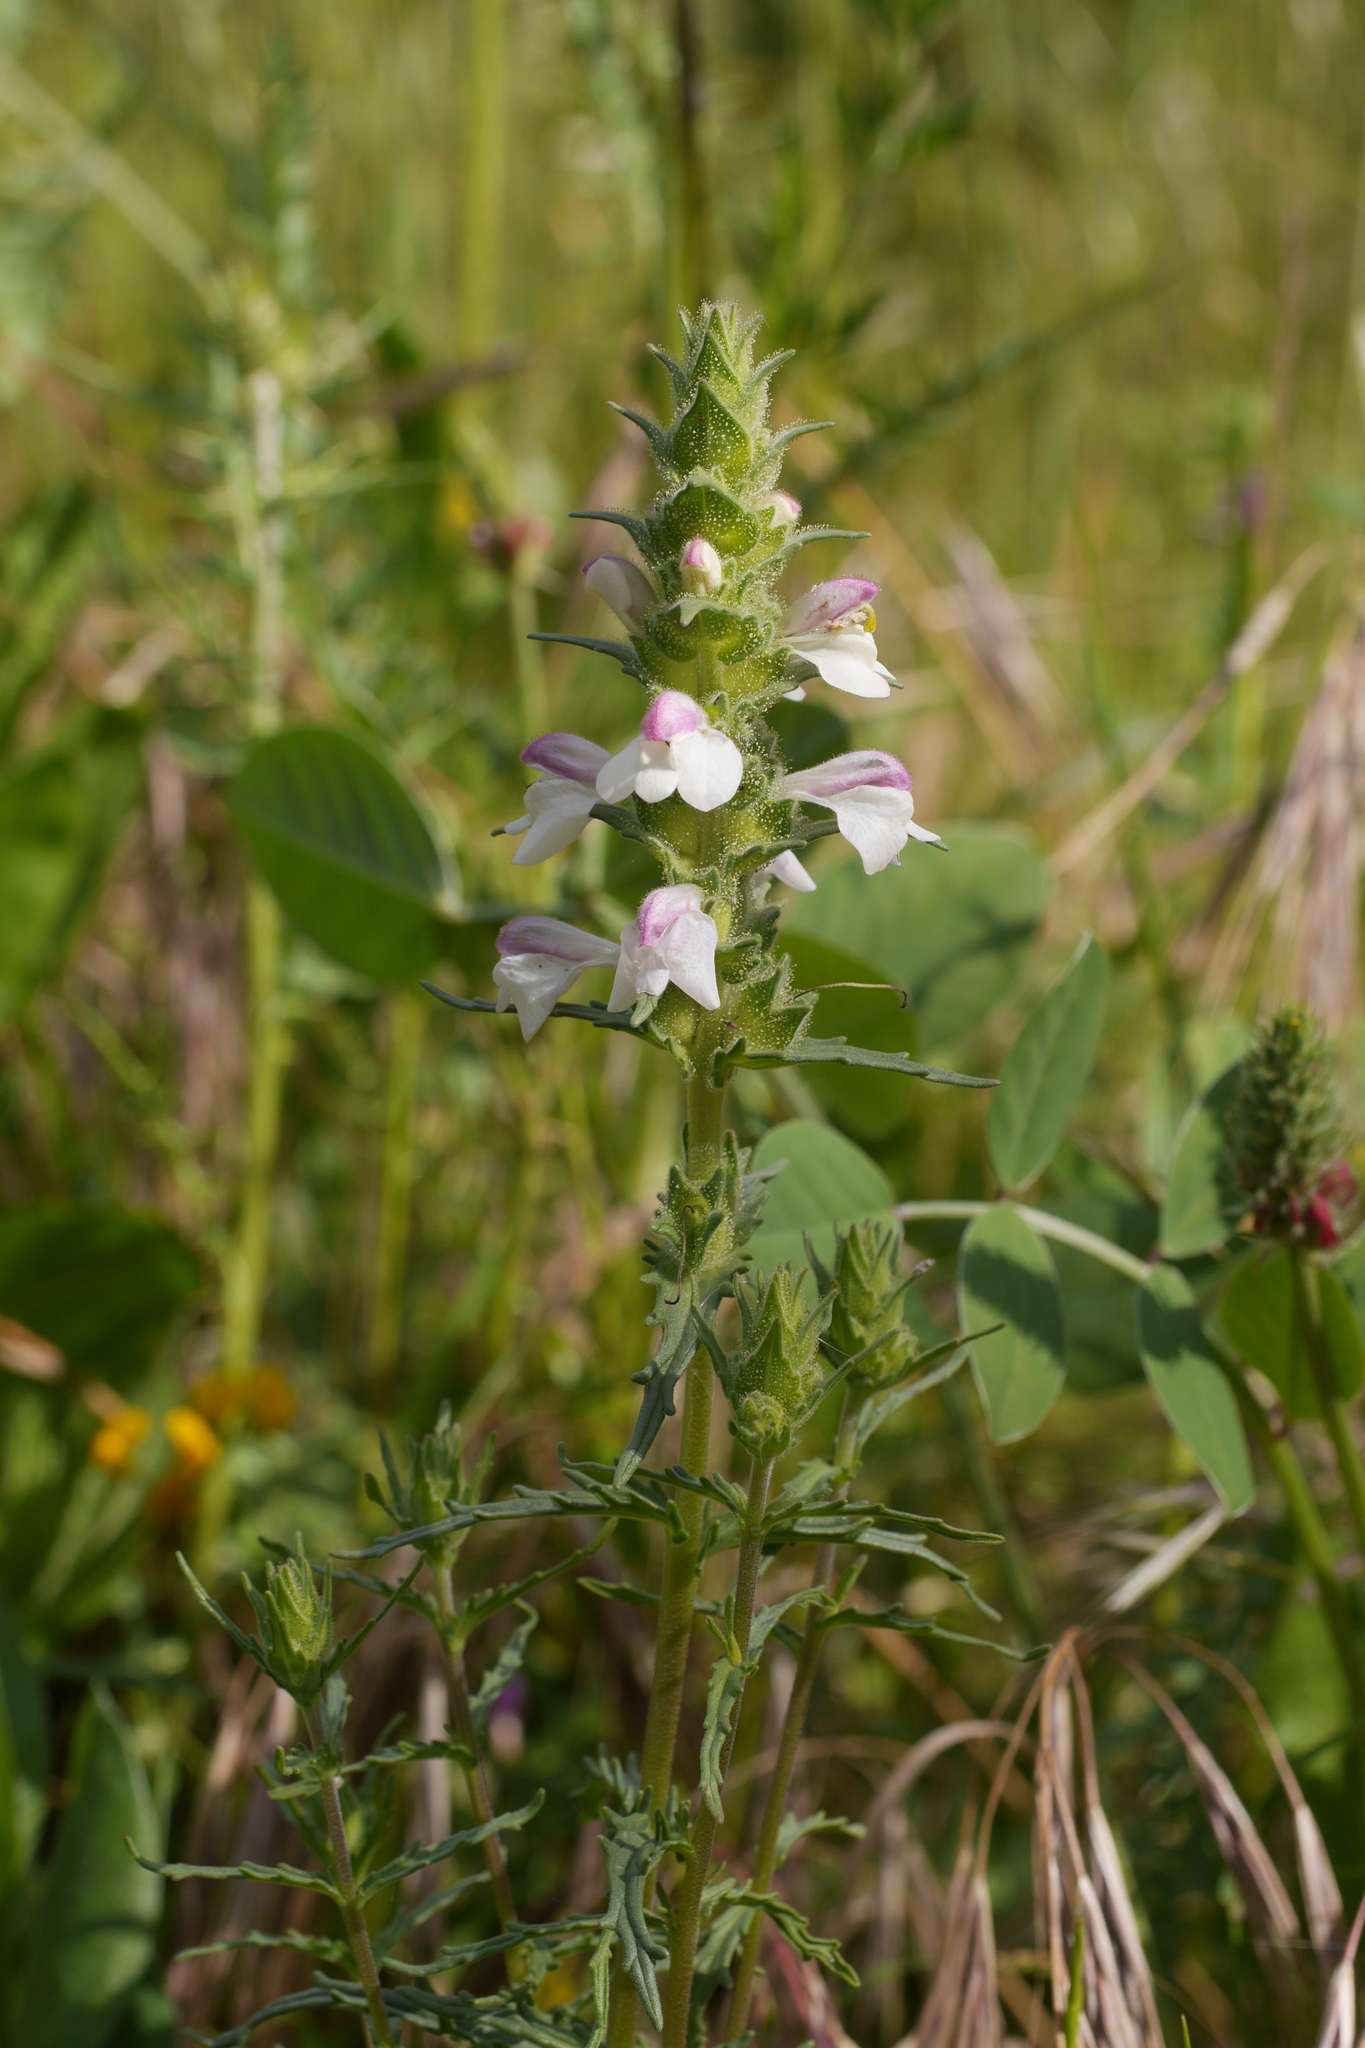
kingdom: Plantae
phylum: Tracheophyta
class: Magnoliopsida
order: Lamiales
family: Orobanchaceae
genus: Bellardia
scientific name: Bellardia trixago
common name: Mediterranean lineseed
